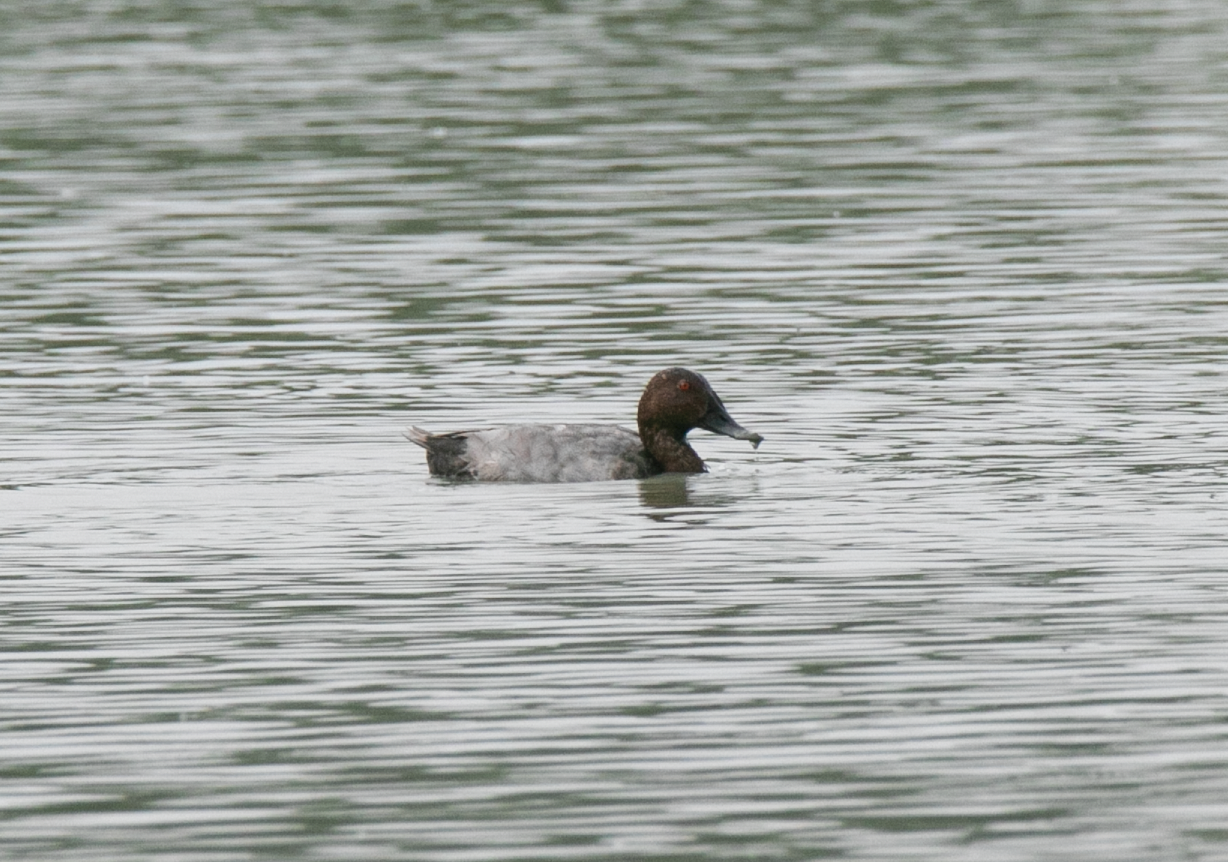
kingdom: Animalia
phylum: Chordata
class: Aves
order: Anseriformes
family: Anatidae
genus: Aythya
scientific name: Aythya ferina
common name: Common pochard
